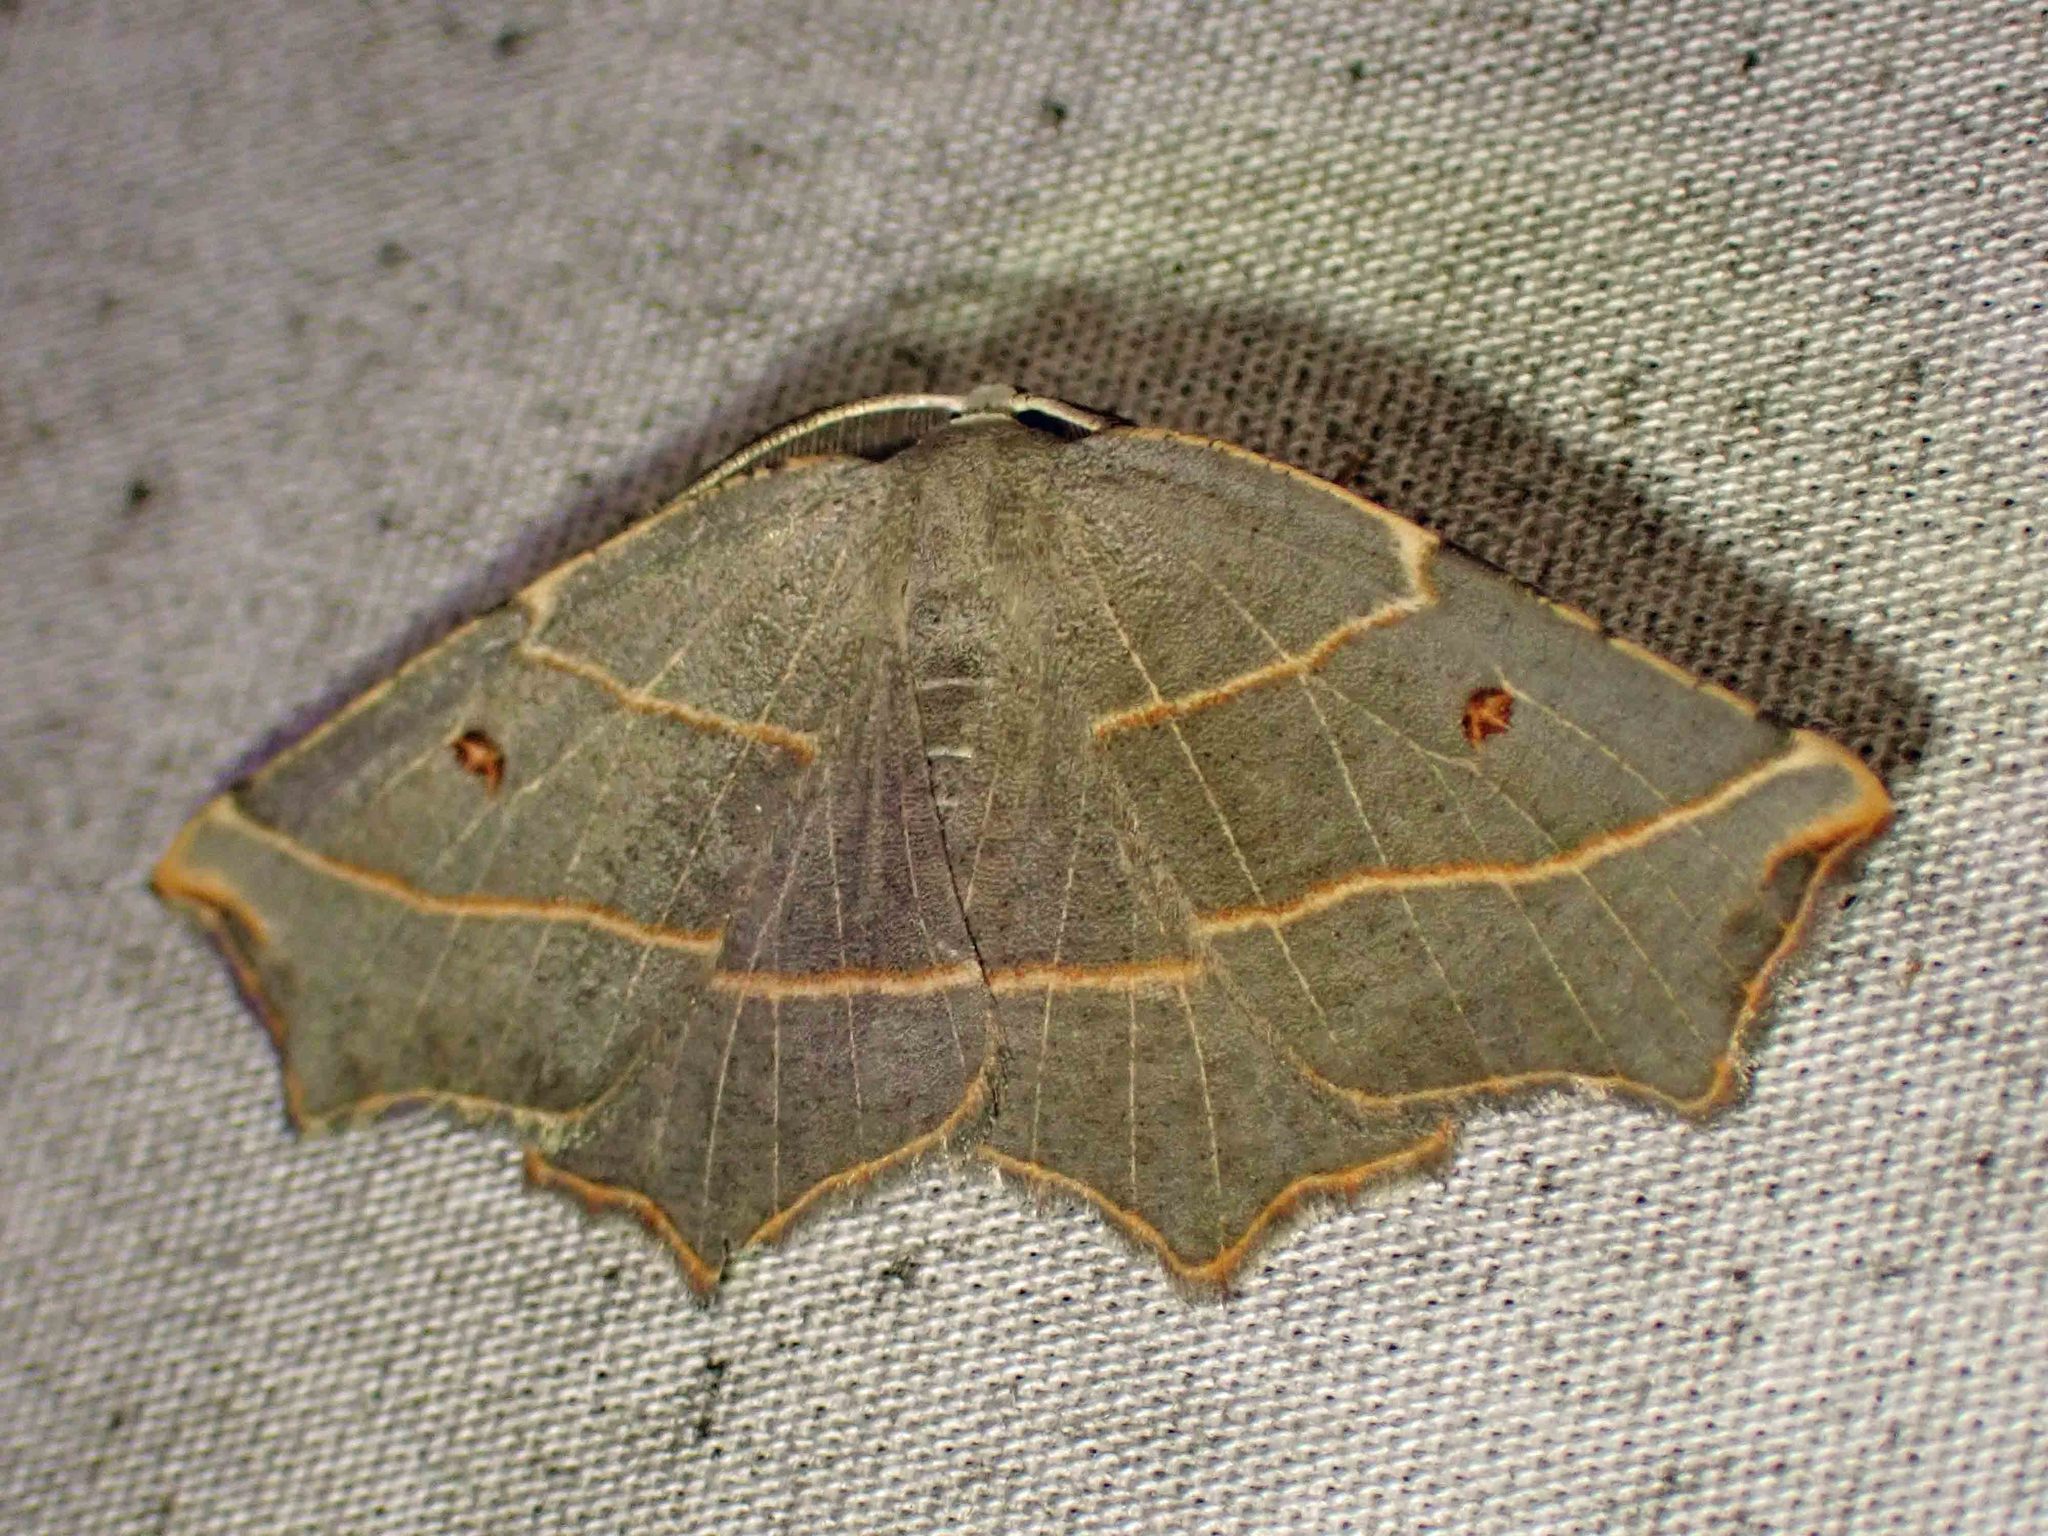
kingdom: Animalia
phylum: Arthropoda
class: Insecta
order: Lepidoptera
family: Geometridae
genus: Metanema
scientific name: Metanema inatomaria
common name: Pale metanema
